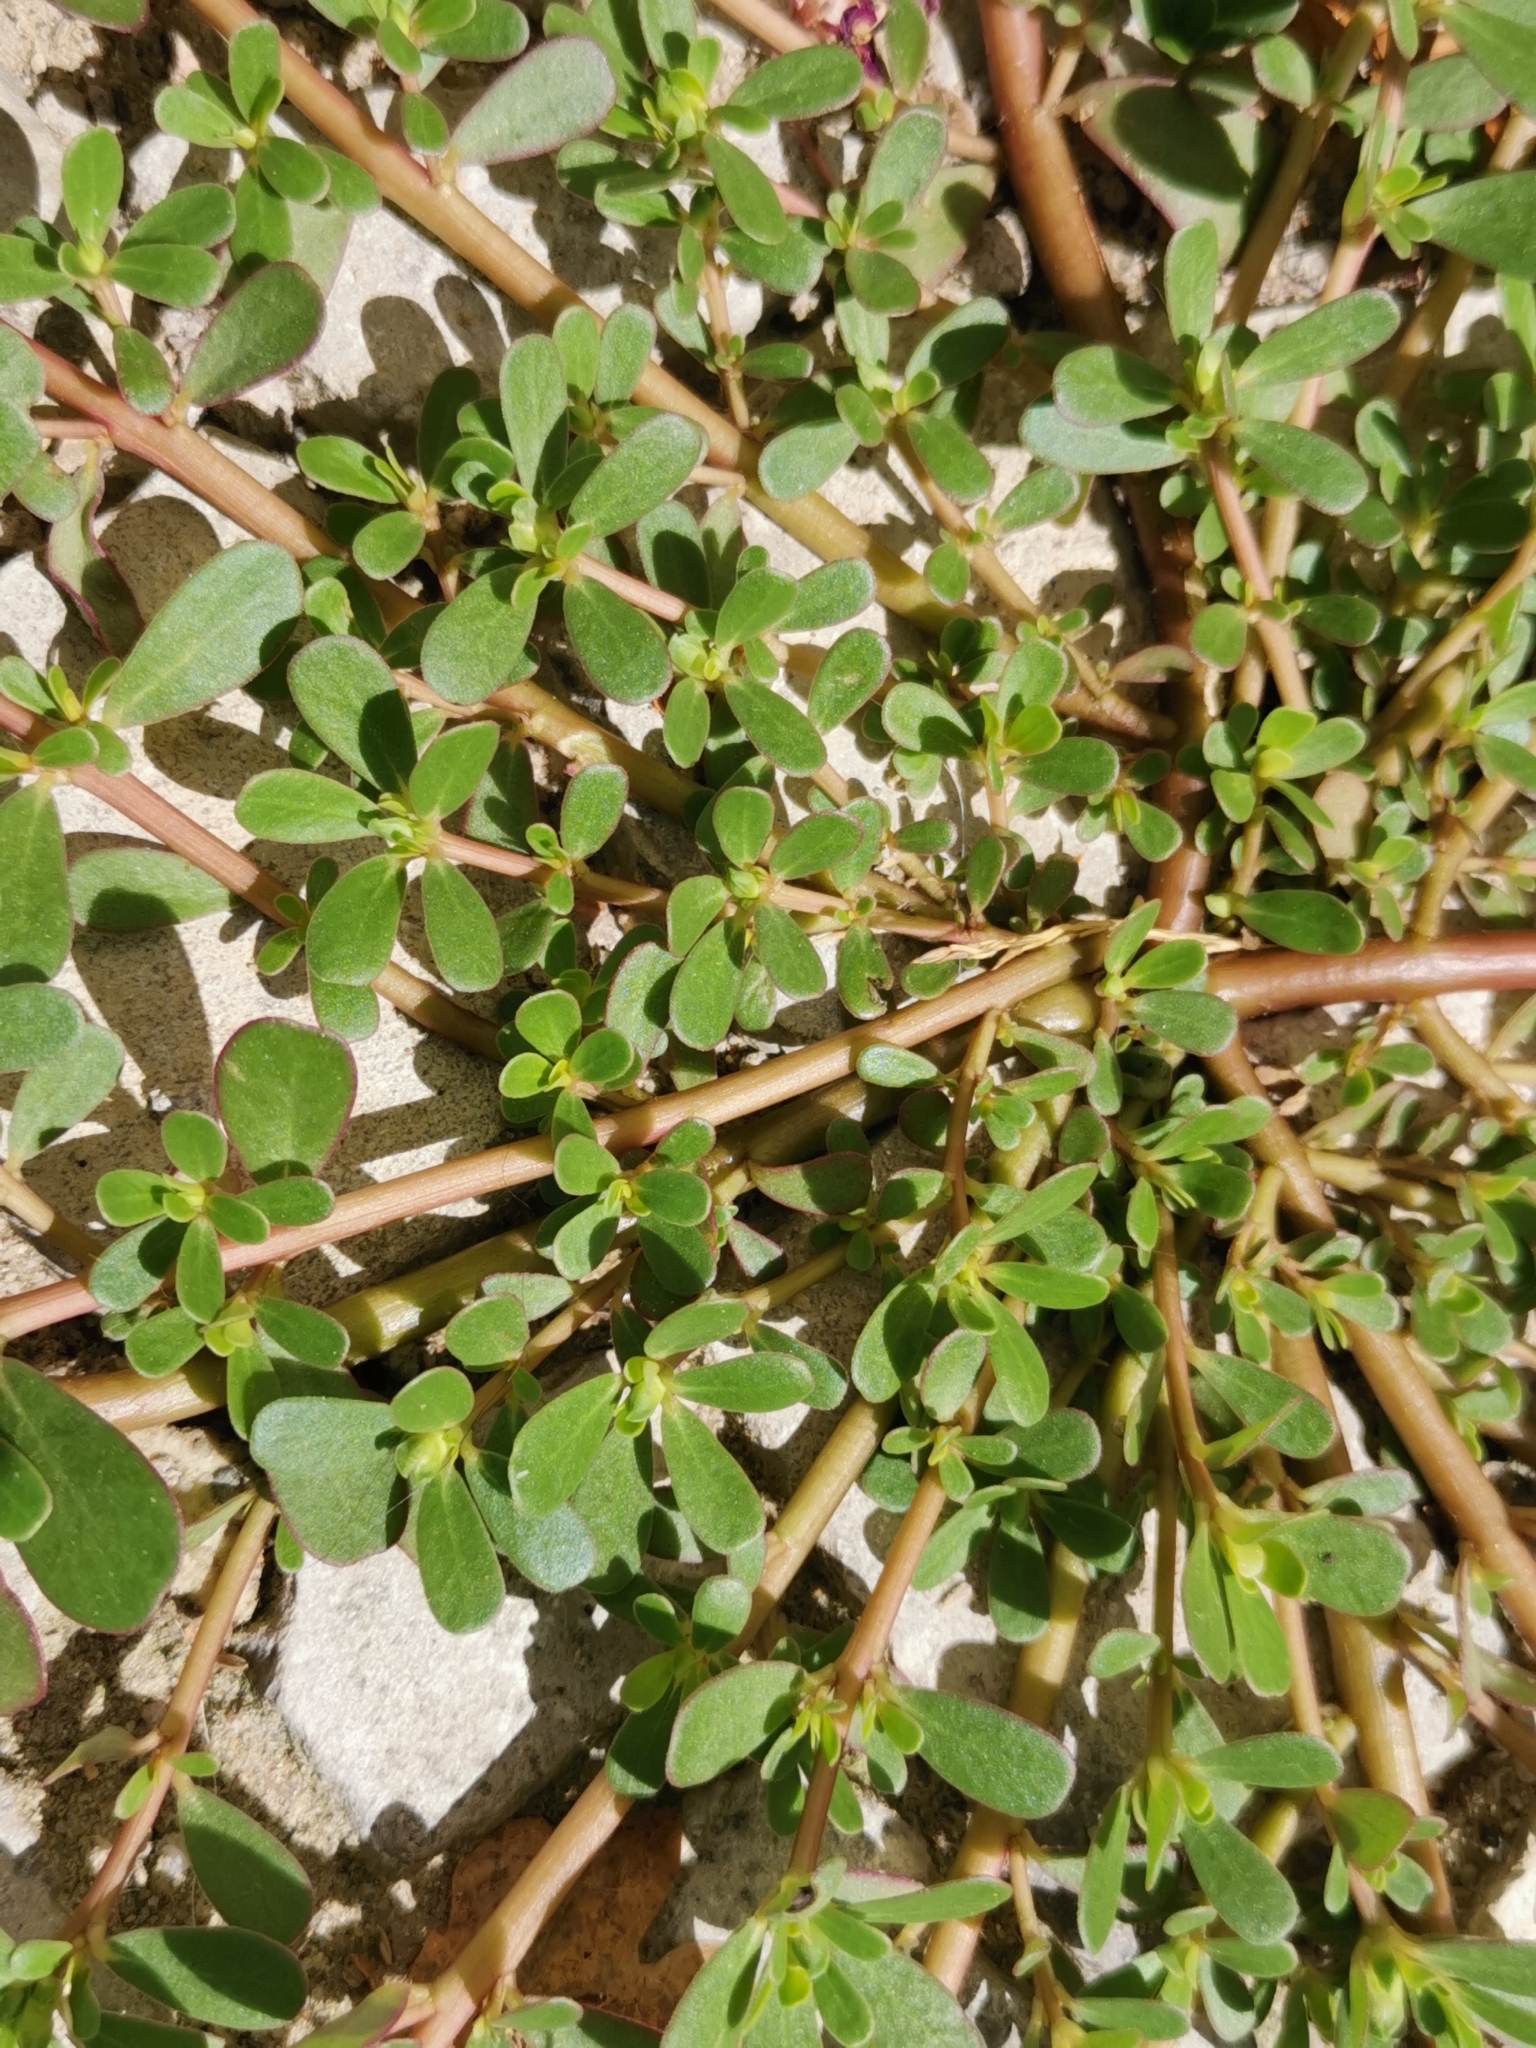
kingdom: Plantae
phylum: Tracheophyta
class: Magnoliopsida
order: Caryophyllales
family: Portulacaceae
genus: Portulaca
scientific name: Portulaca oleracea
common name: Common purslane
